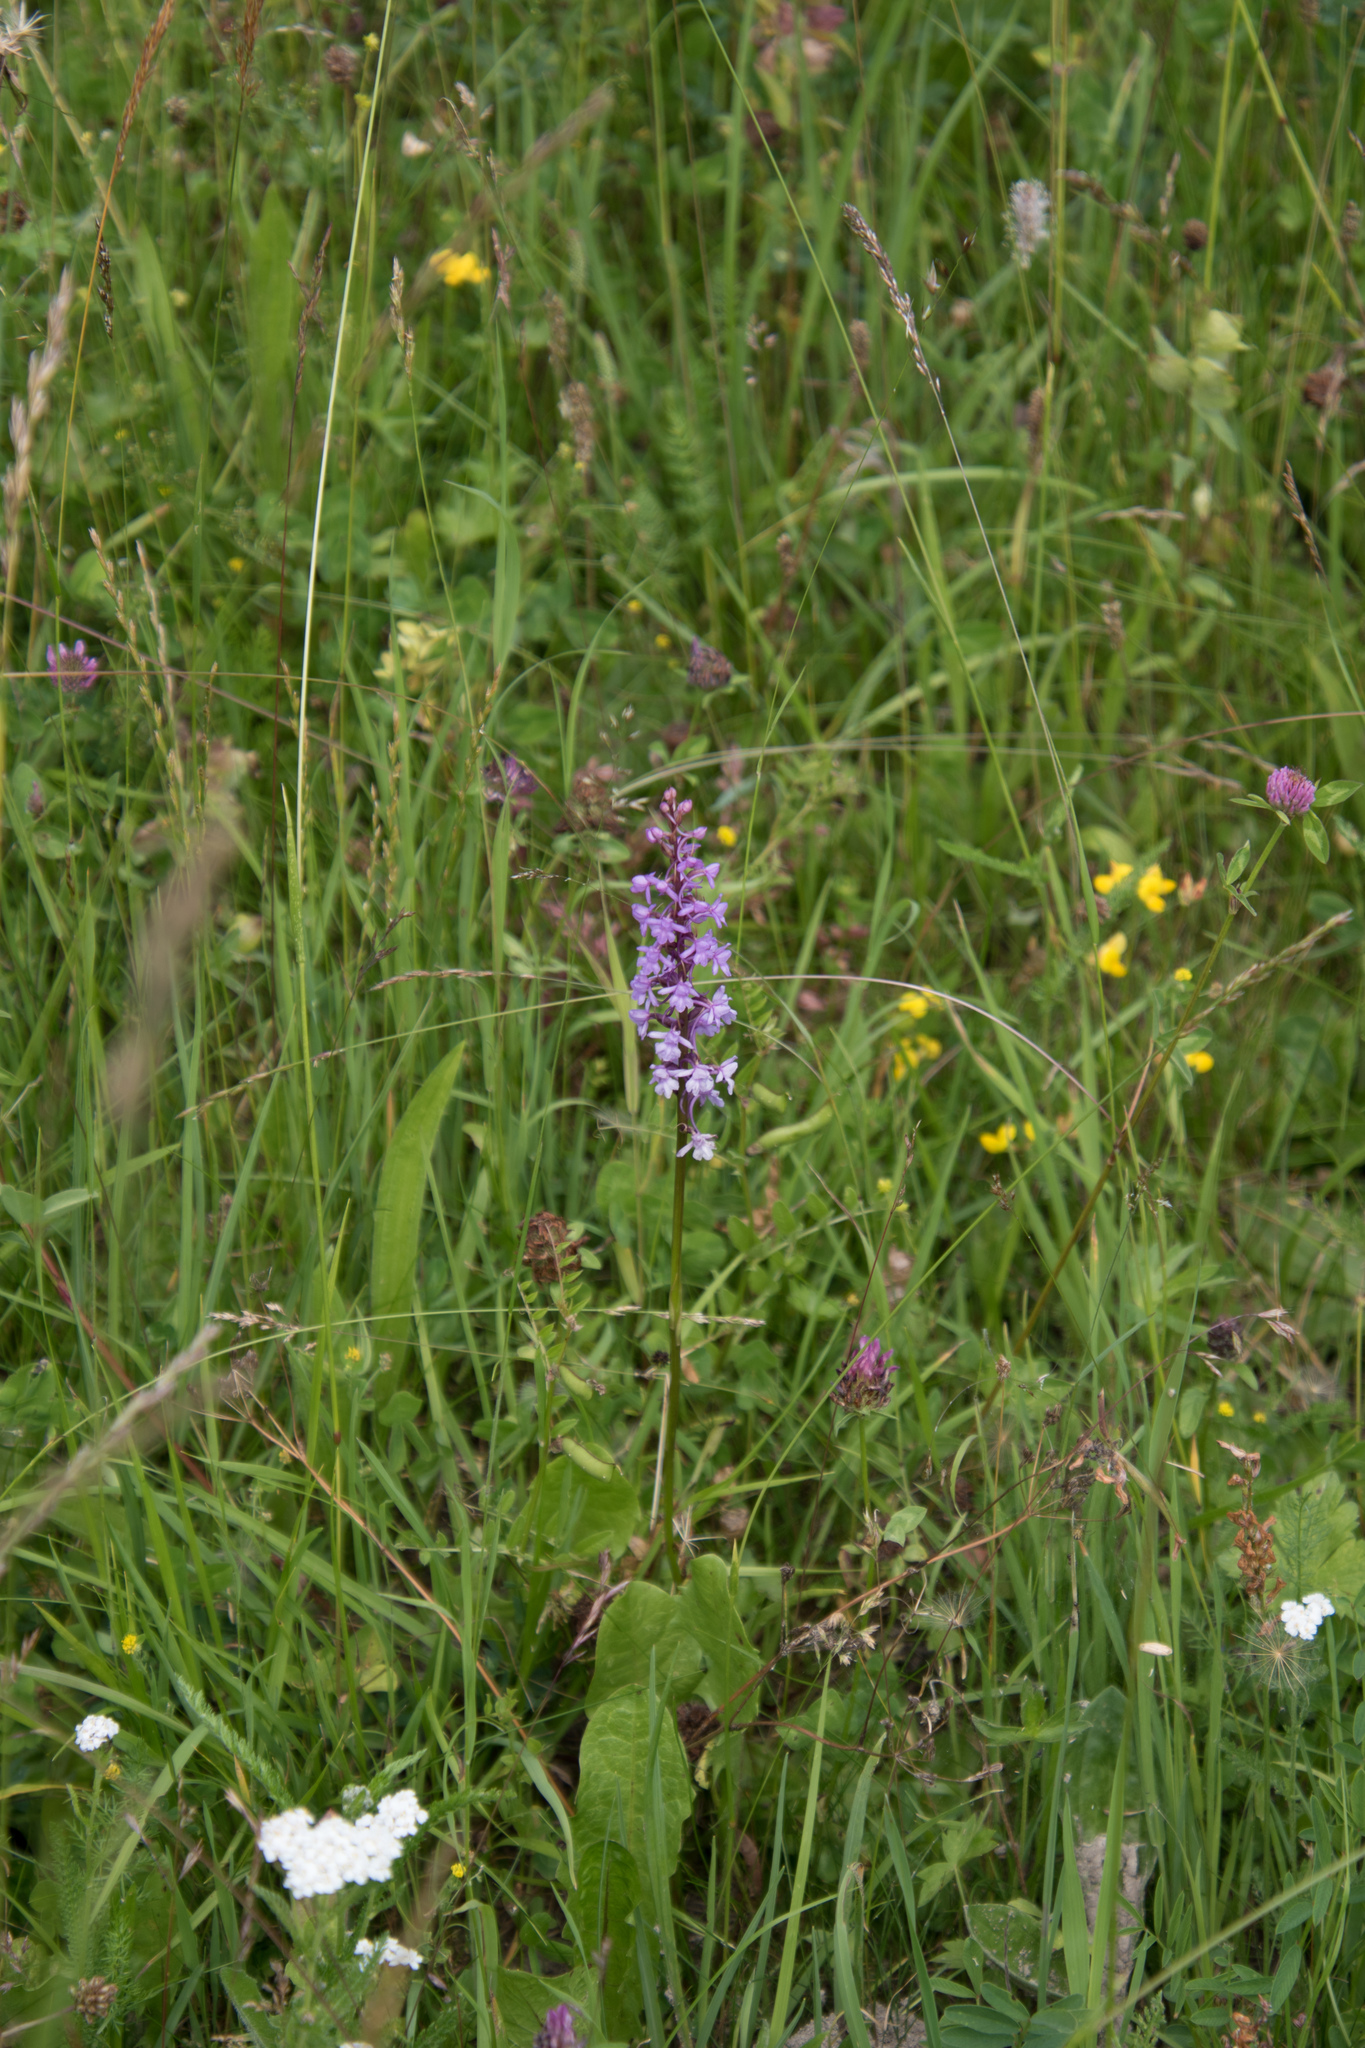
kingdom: Plantae
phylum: Tracheophyta
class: Liliopsida
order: Asparagales
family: Orchidaceae
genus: Gymnadenia
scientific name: Gymnadenia conopsea
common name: Fragrant orchid
